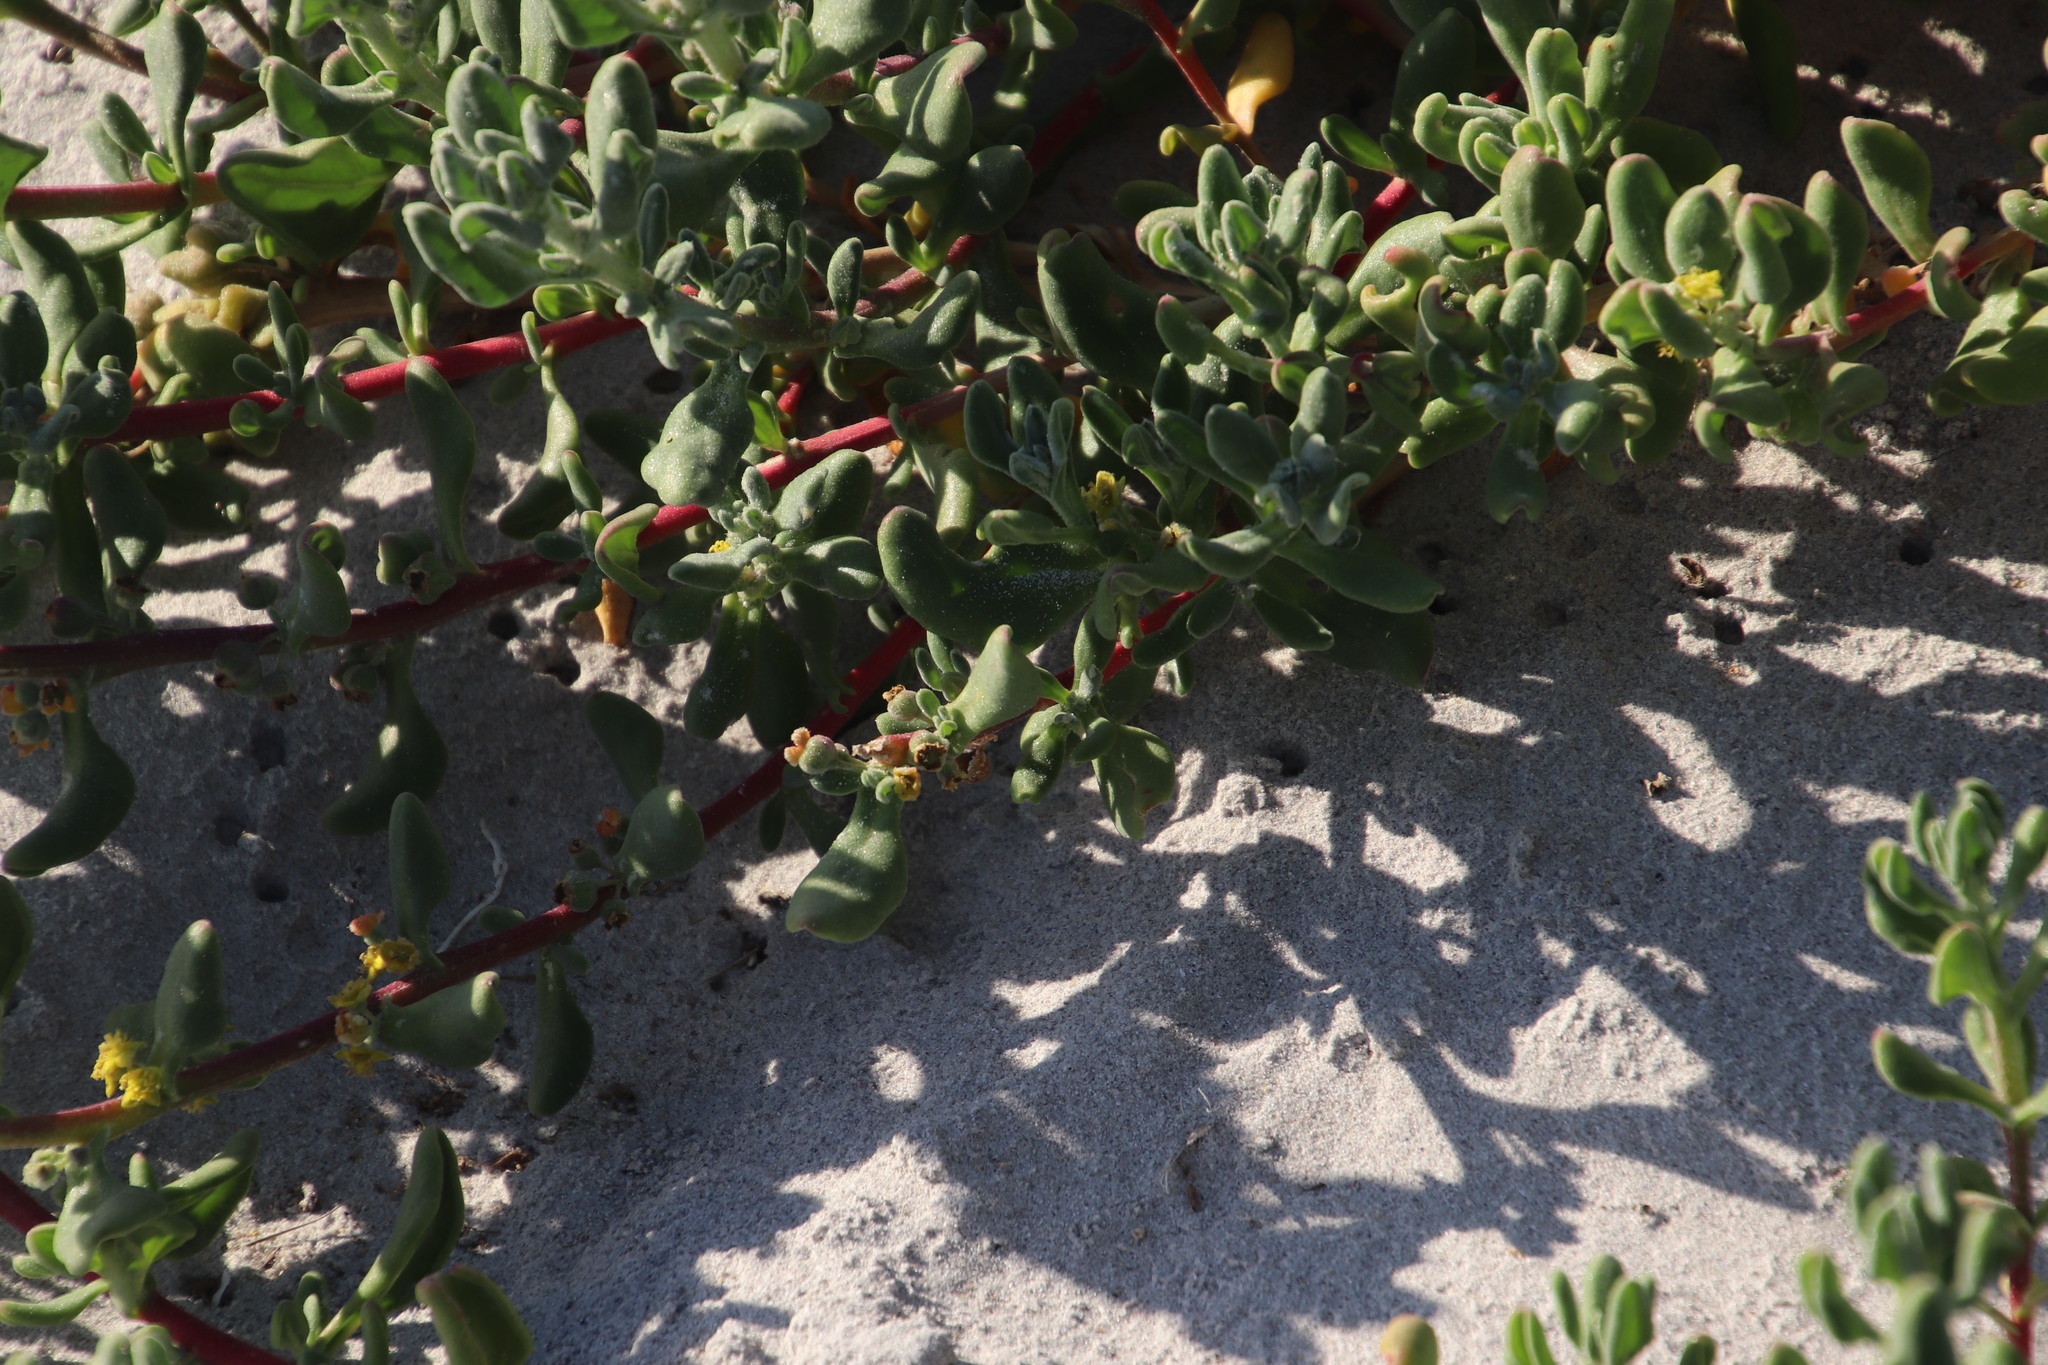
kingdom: Plantae
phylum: Tracheophyta
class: Magnoliopsida
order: Caryophyllales
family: Aizoaceae
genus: Tetragonia
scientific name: Tetragonia decumbens
